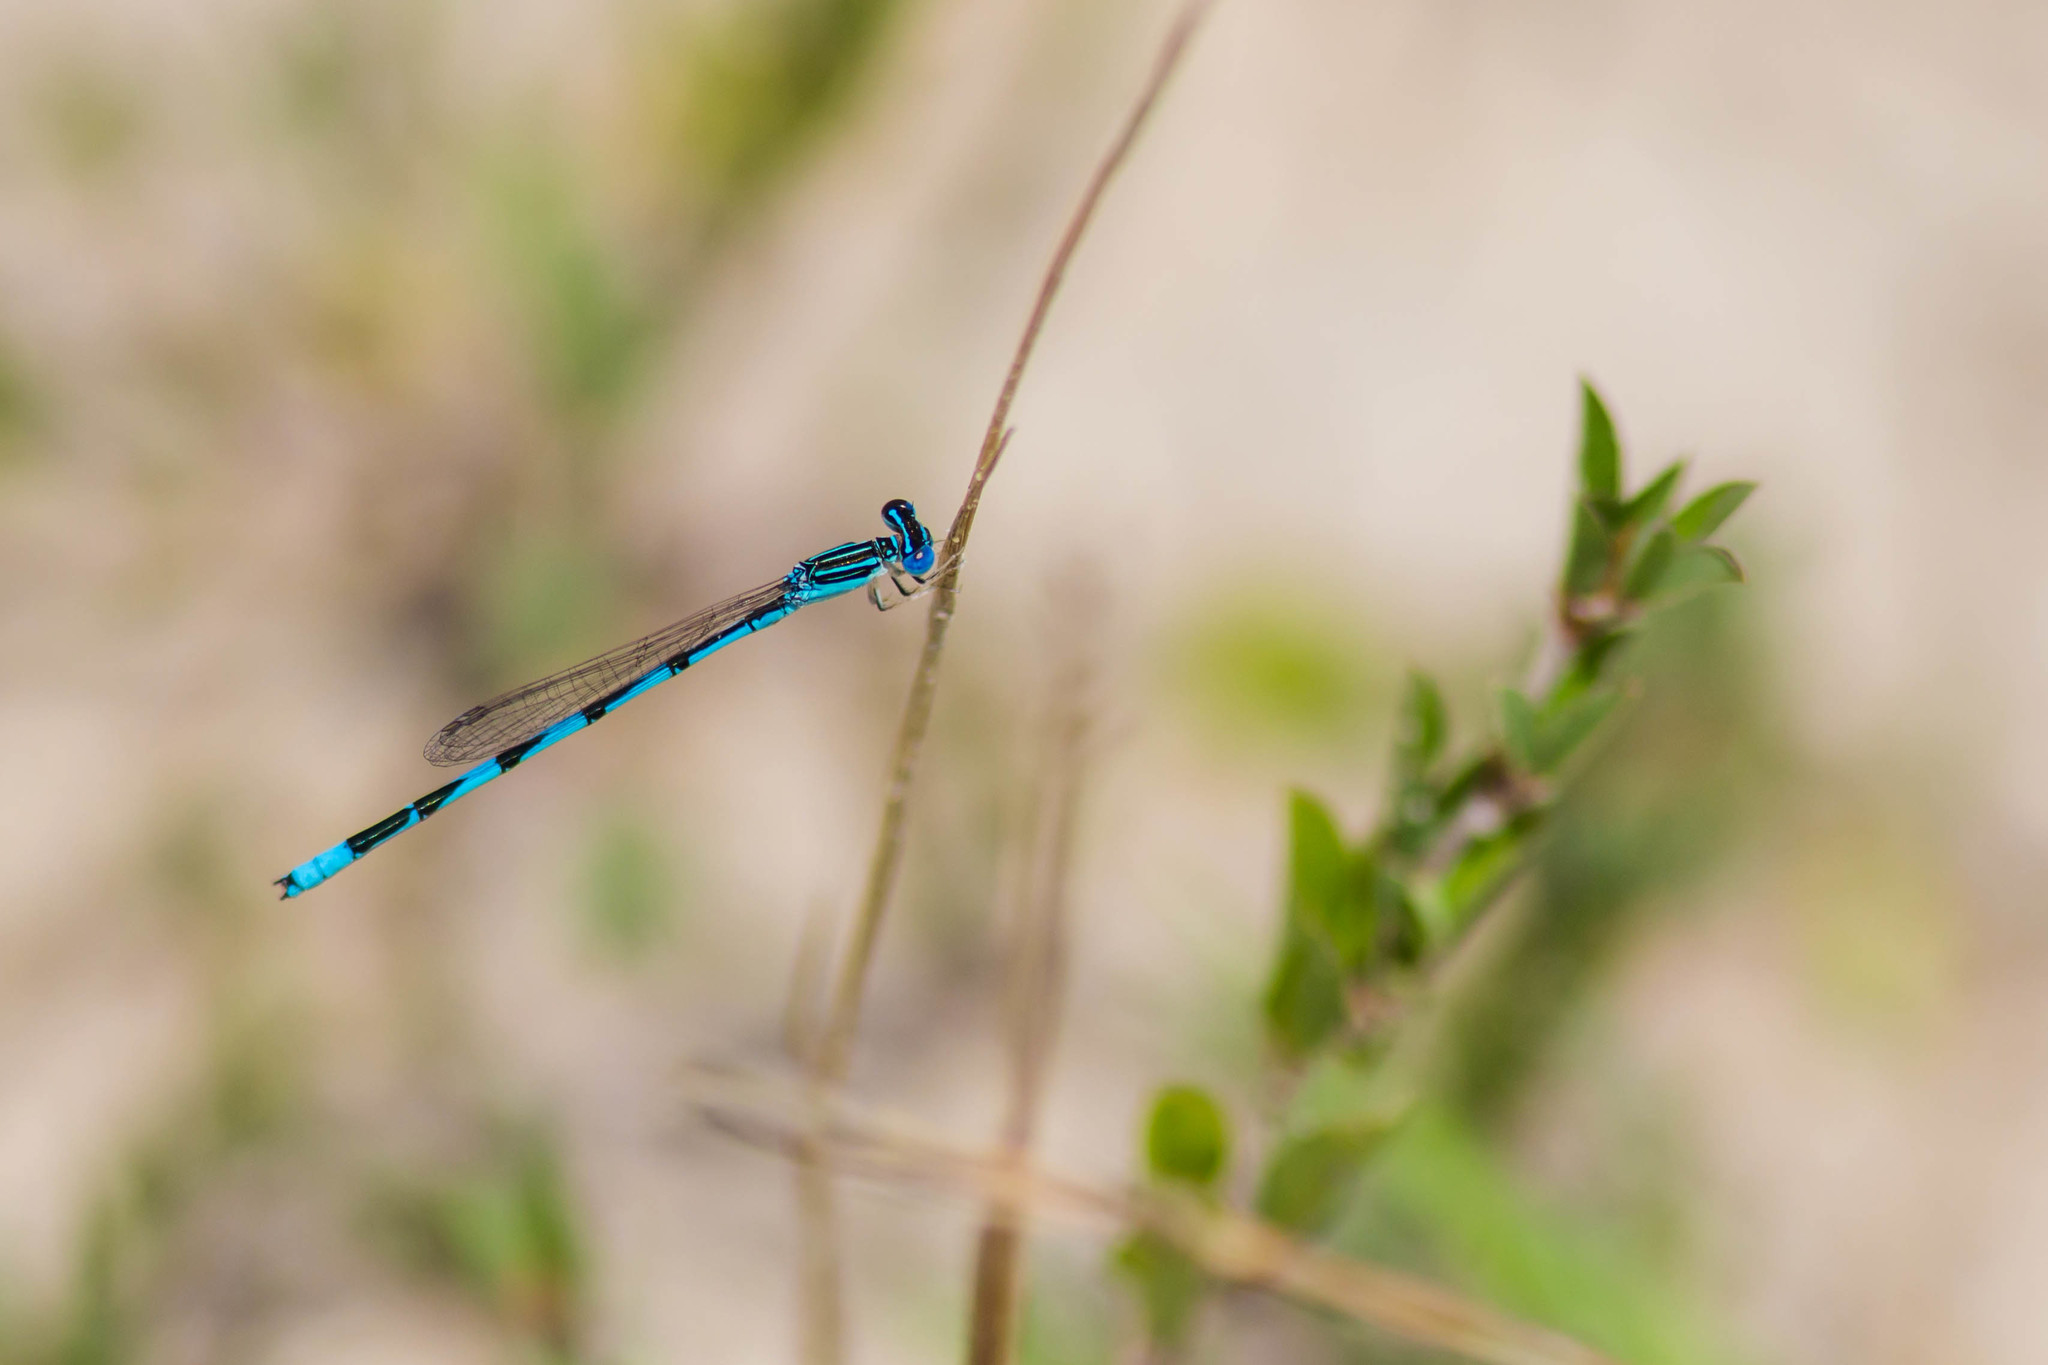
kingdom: Animalia
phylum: Arthropoda
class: Insecta
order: Odonata
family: Coenagrionidae
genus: Enallagma
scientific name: Enallagma basidens
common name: Double-striped bluet
